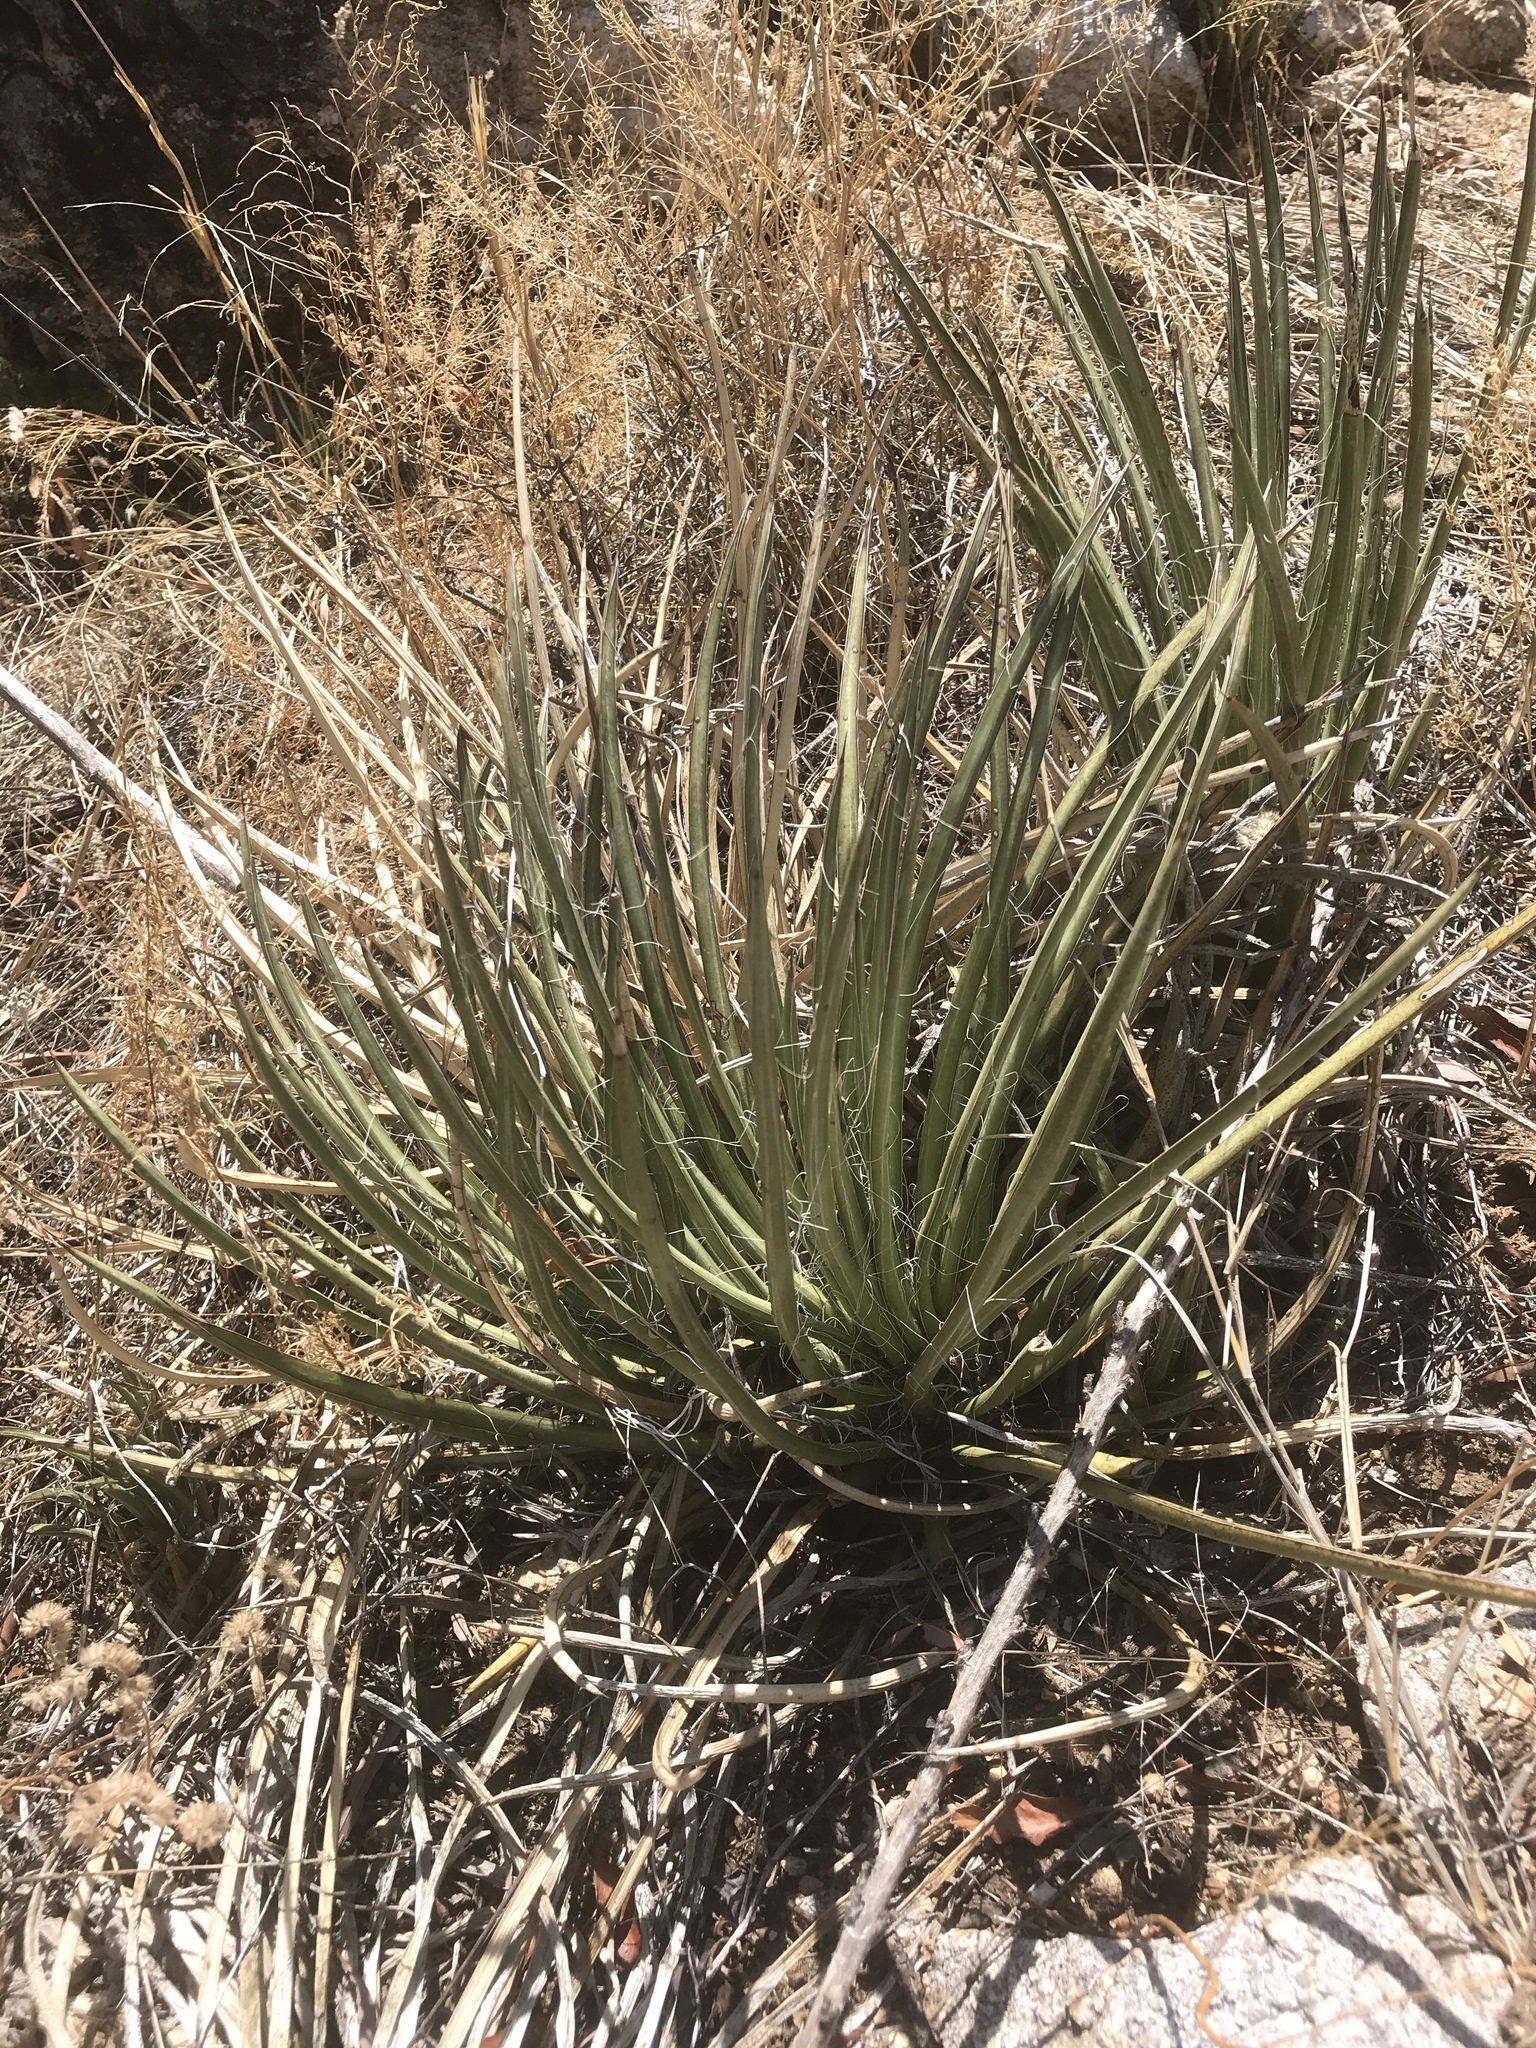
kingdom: Plantae
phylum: Tracheophyta
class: Liliopsida
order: Asparagales
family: Asparagaceae
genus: Agave
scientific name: Agave schottii
